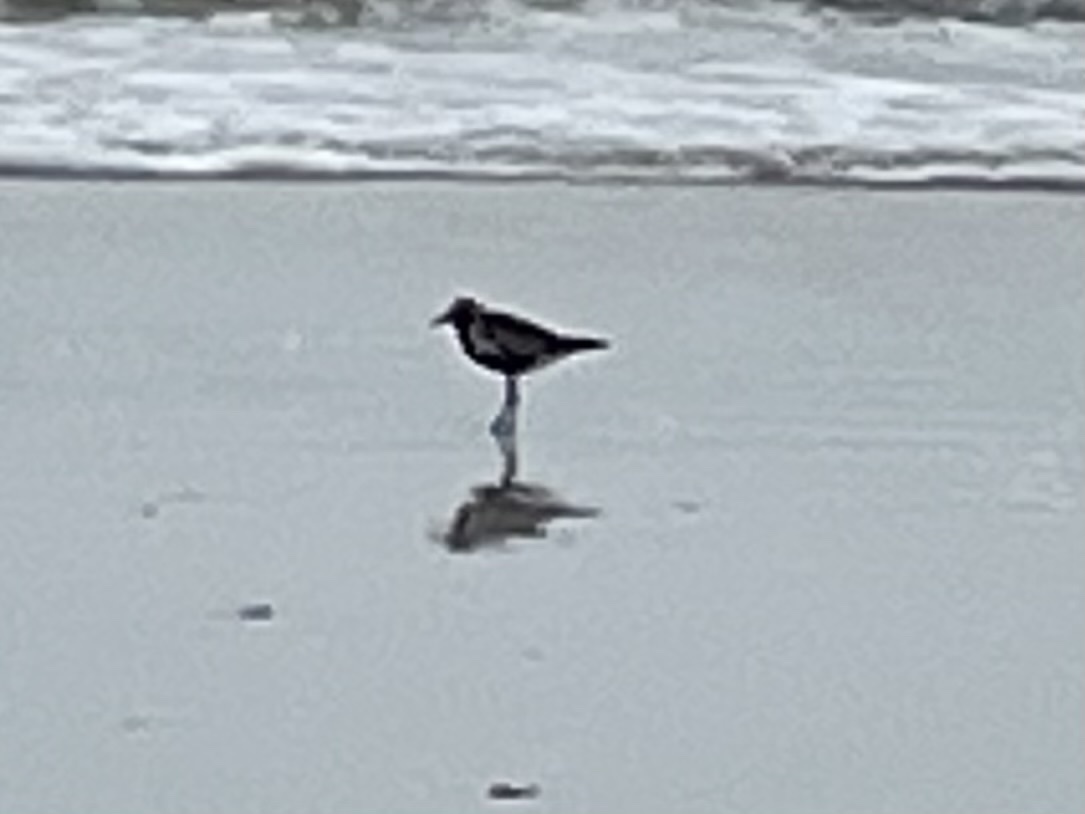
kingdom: Animalia
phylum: Chordata
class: Aves
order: Charadriiformes
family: Charadriidae
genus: Pluvialis
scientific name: Pluvialis squatarola
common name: Grey plover
